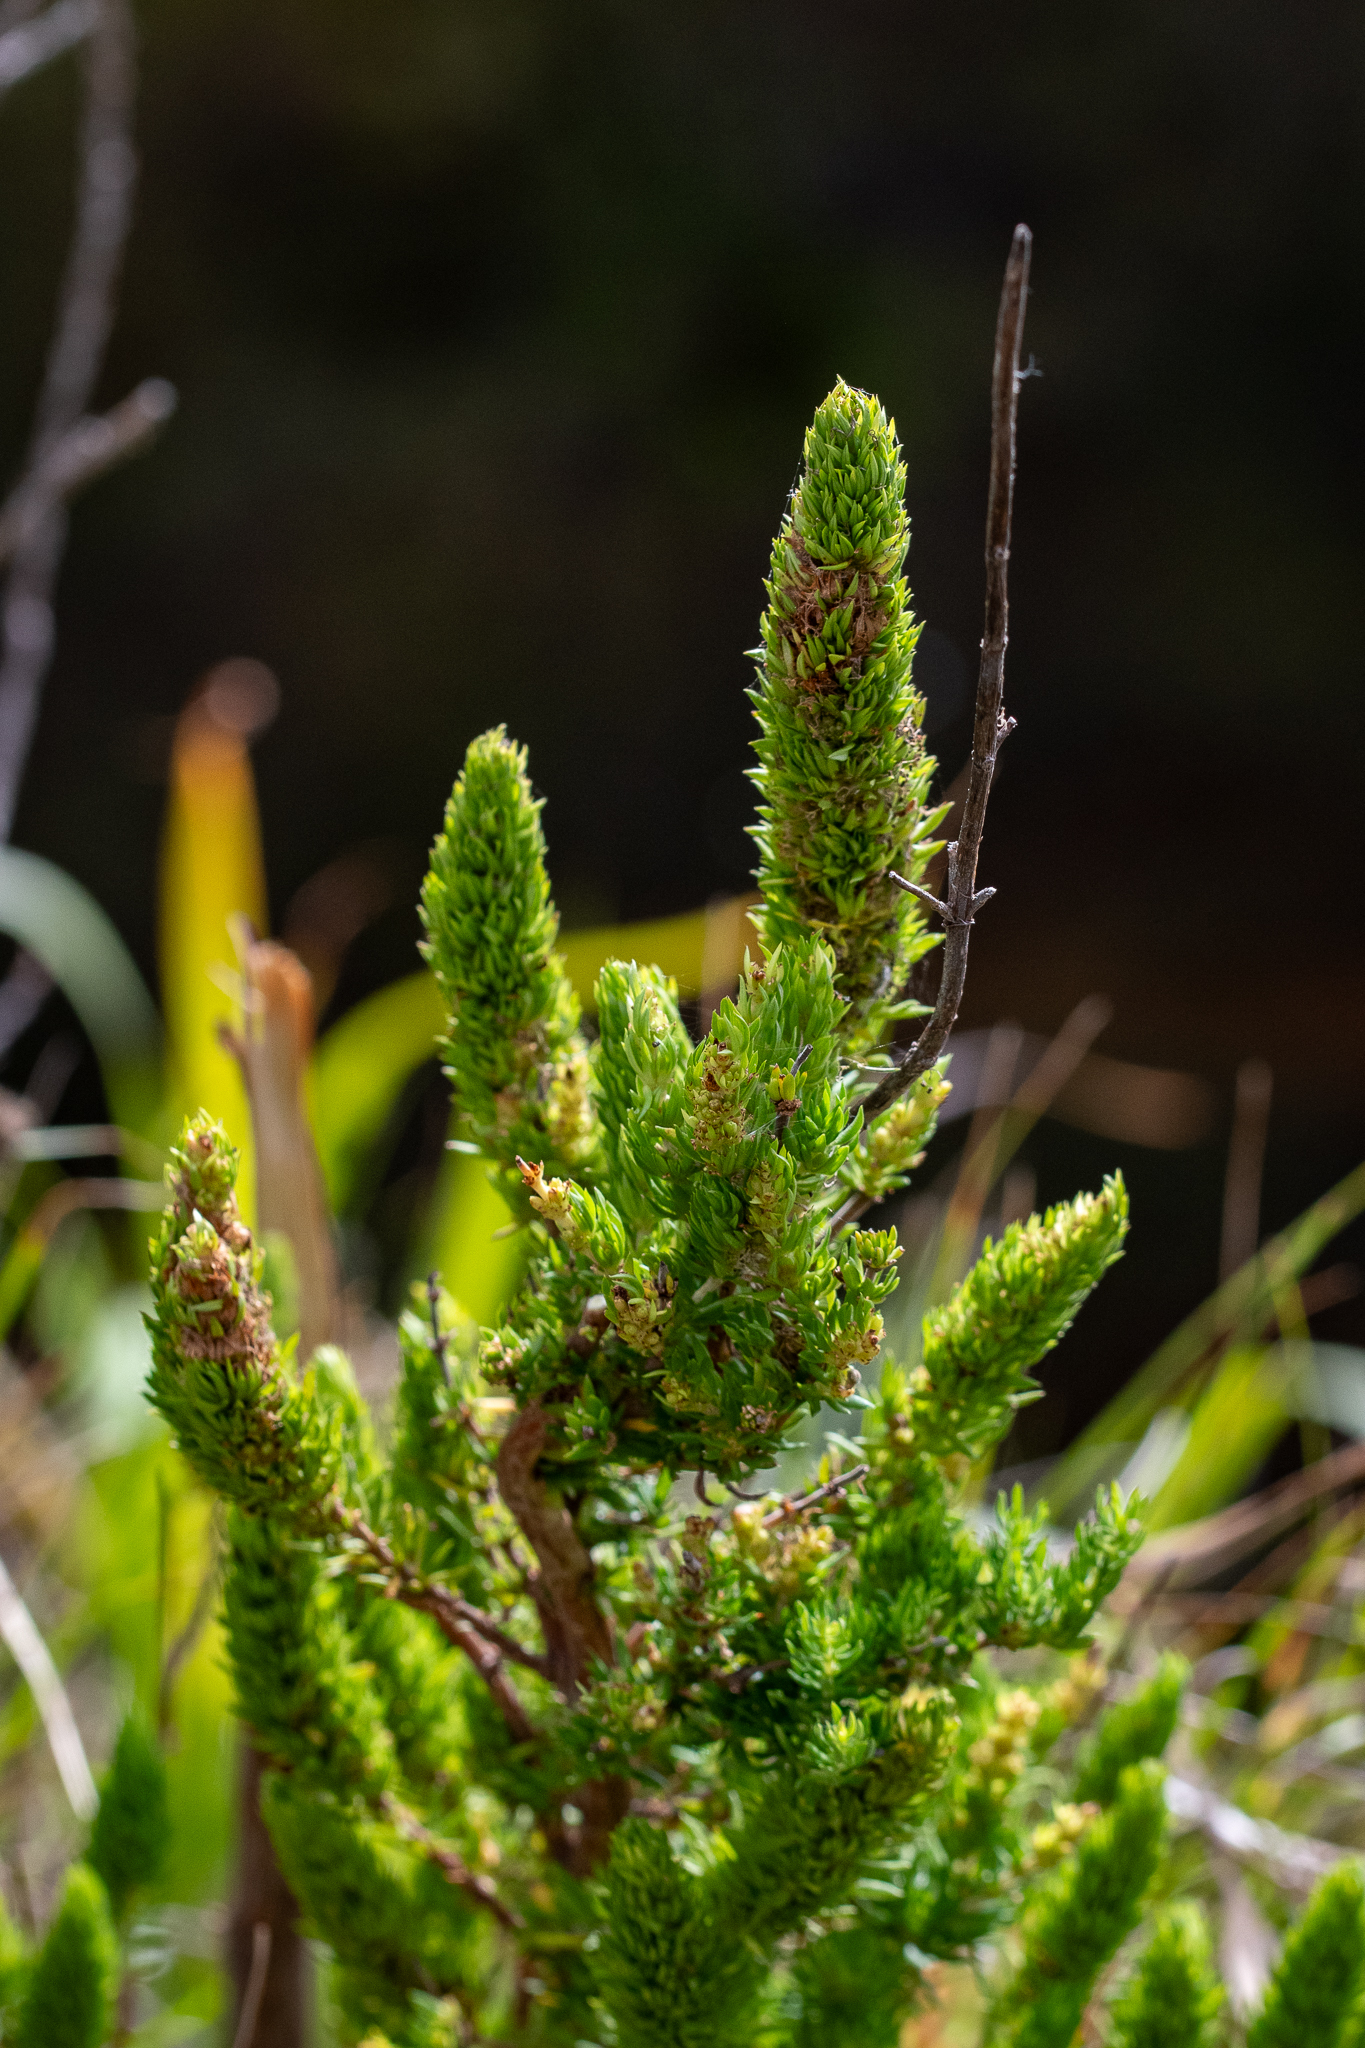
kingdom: Plantae
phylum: Tracheophyta
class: Magnoliopsida
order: Gentianales
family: Rubiaceae
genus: Anthospermum
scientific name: Anthospermum aethiopicum
